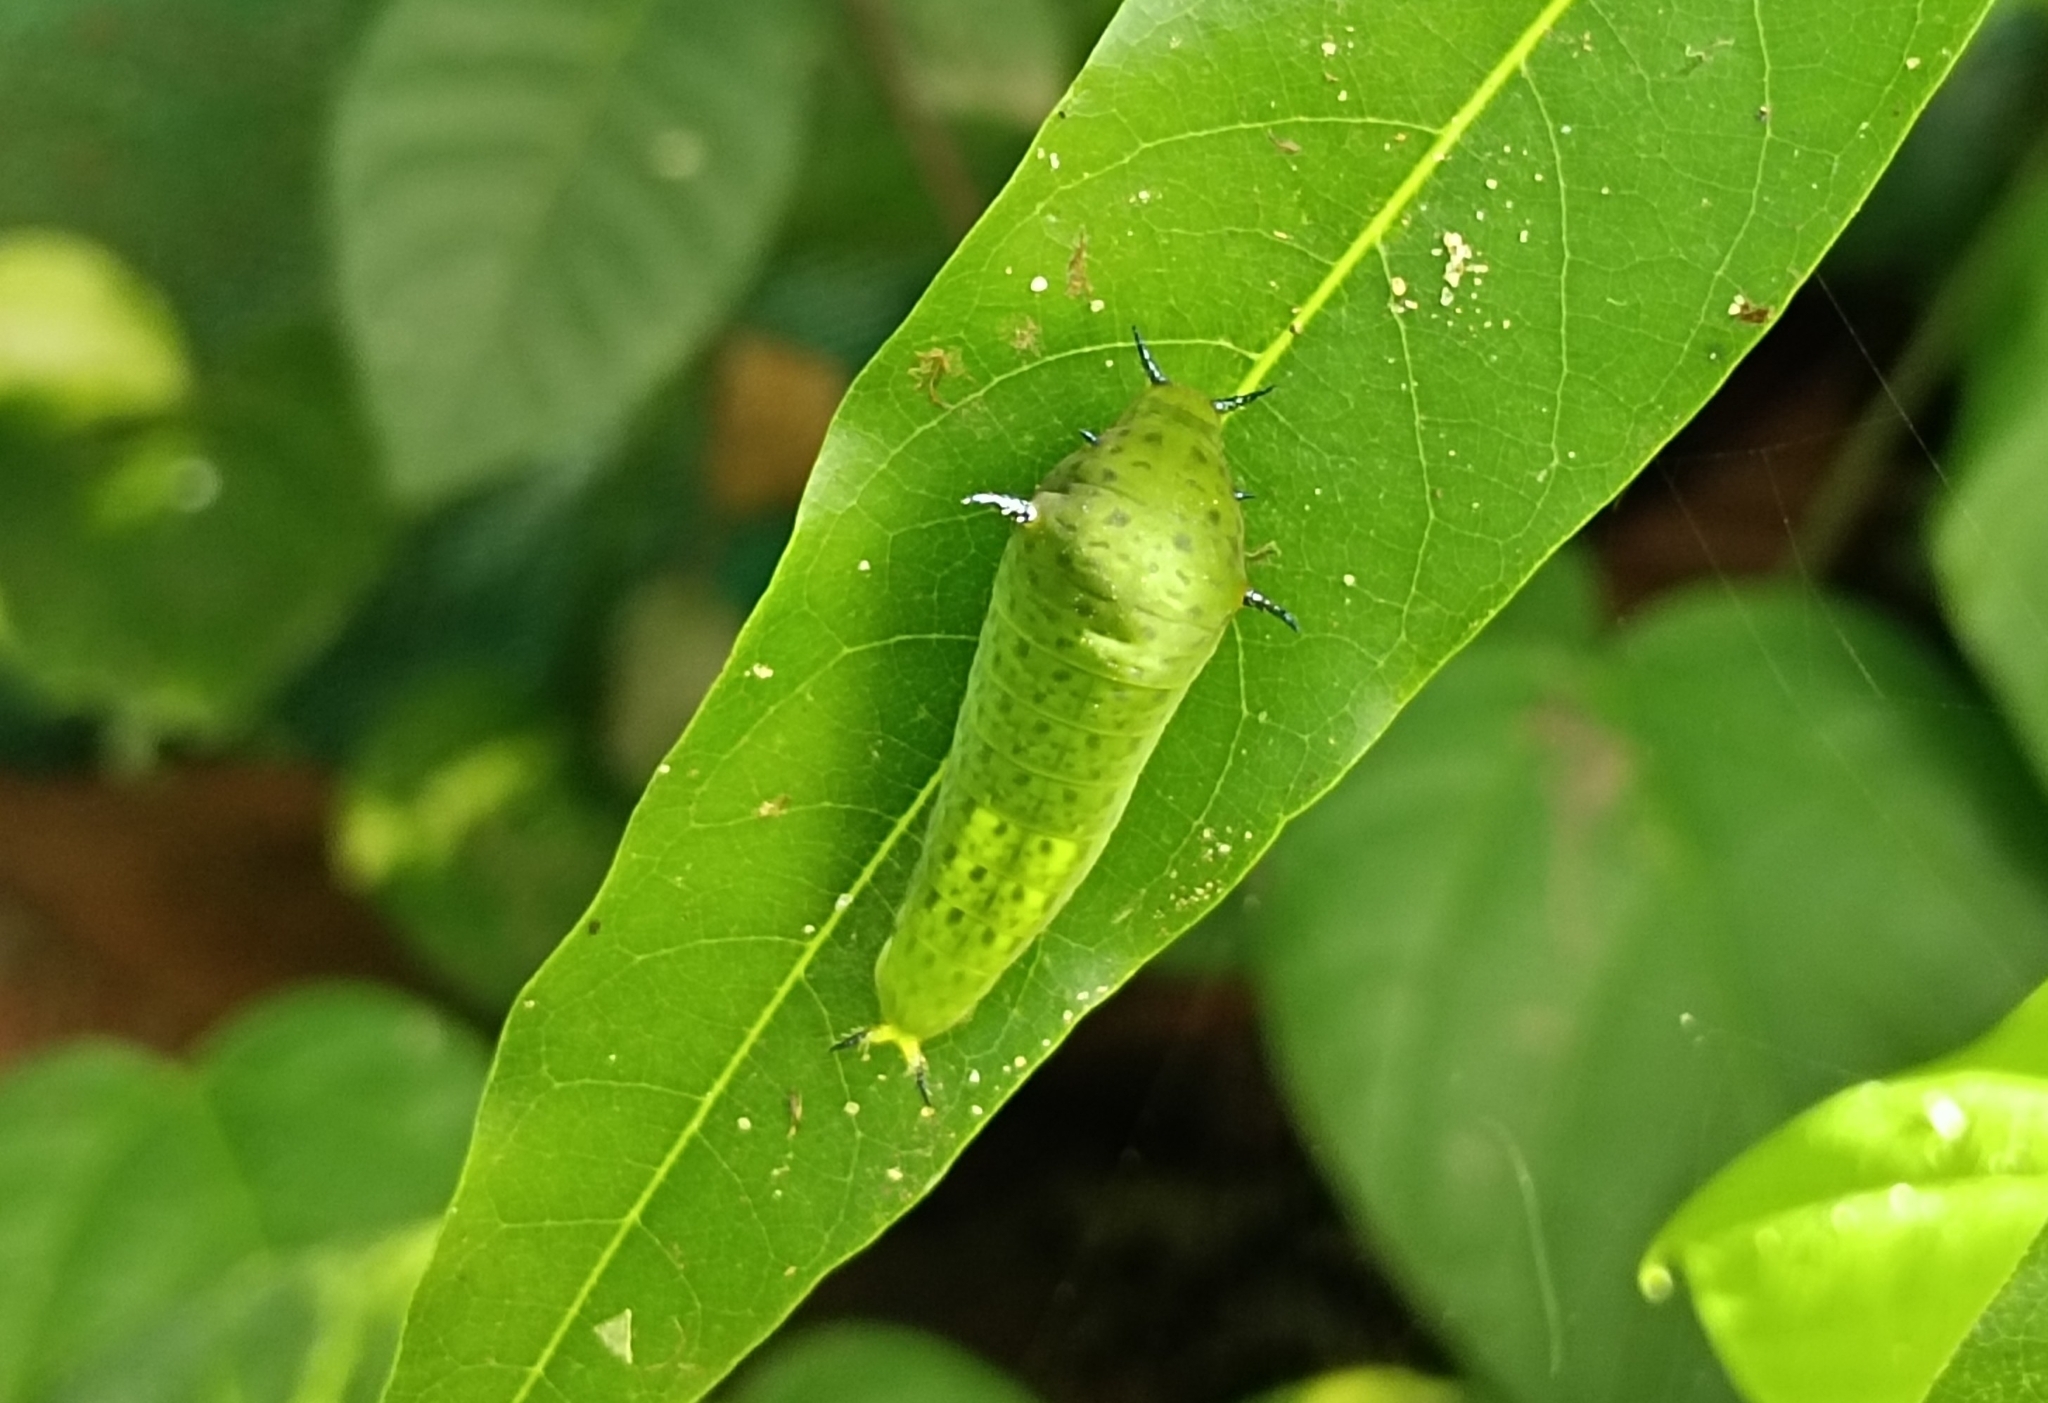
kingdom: Animalia
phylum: Arthropoda
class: Insecta
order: Lepidoptera
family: Papilionidae
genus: Graphium
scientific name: Graphium agamemnon
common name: Tailed jay
